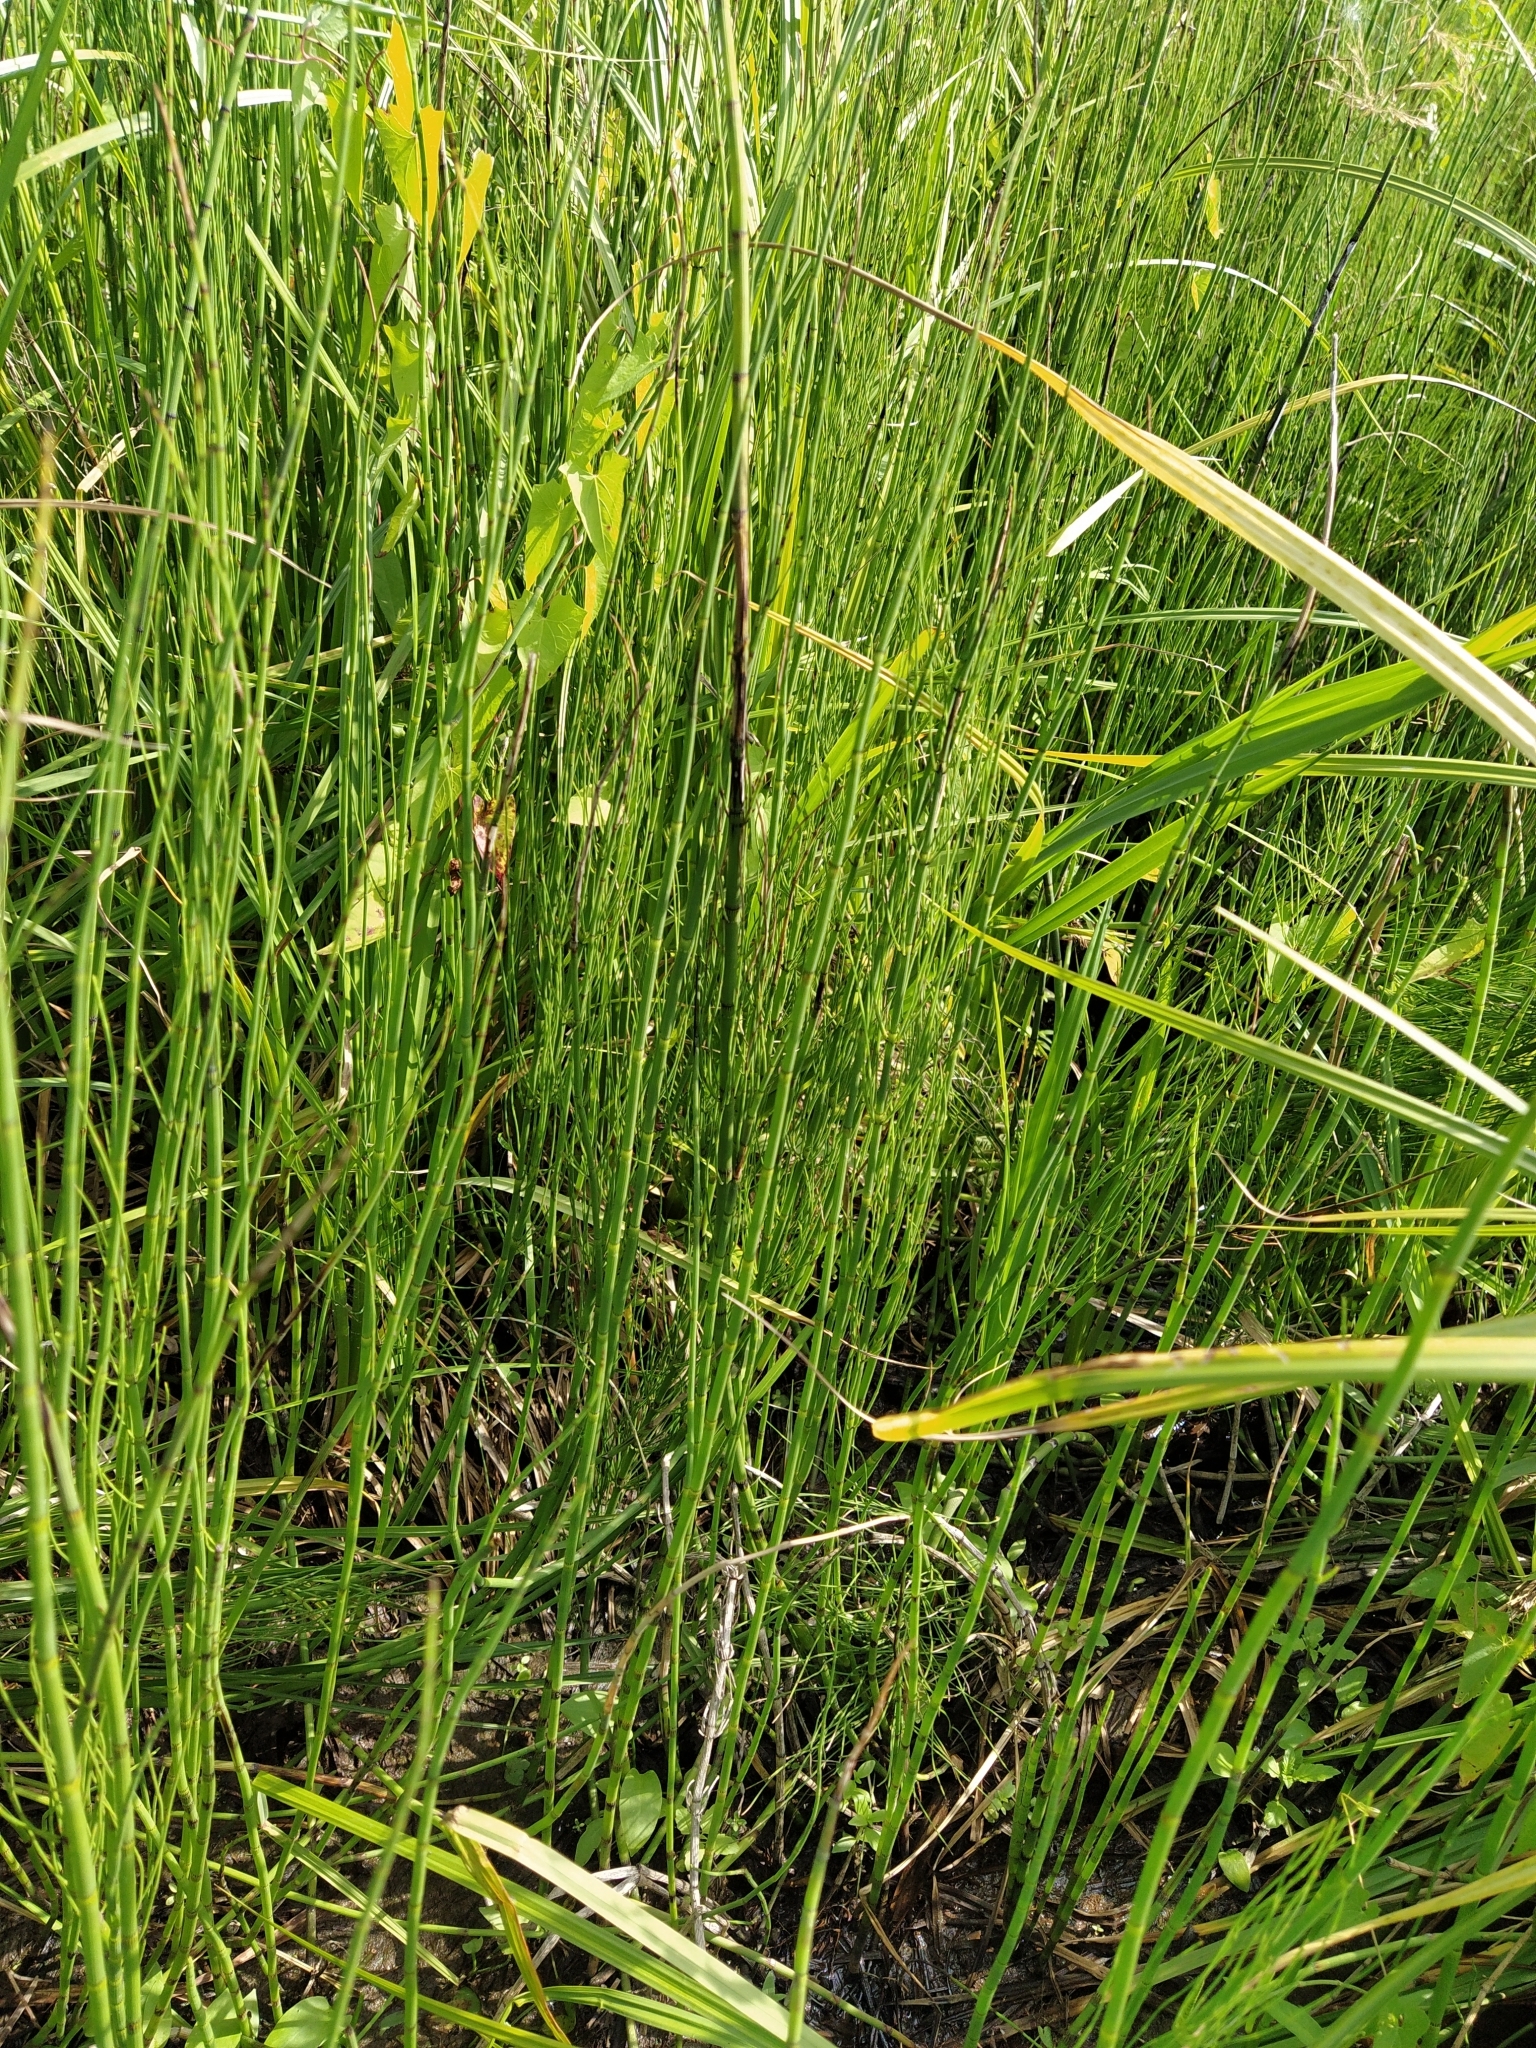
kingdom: Plantae
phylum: Tracheophyta
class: Polypodiopsida
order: Equisetales
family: Equisetaceae
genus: Equisetum
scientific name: Equisetum fluviatile
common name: Water horsetail
